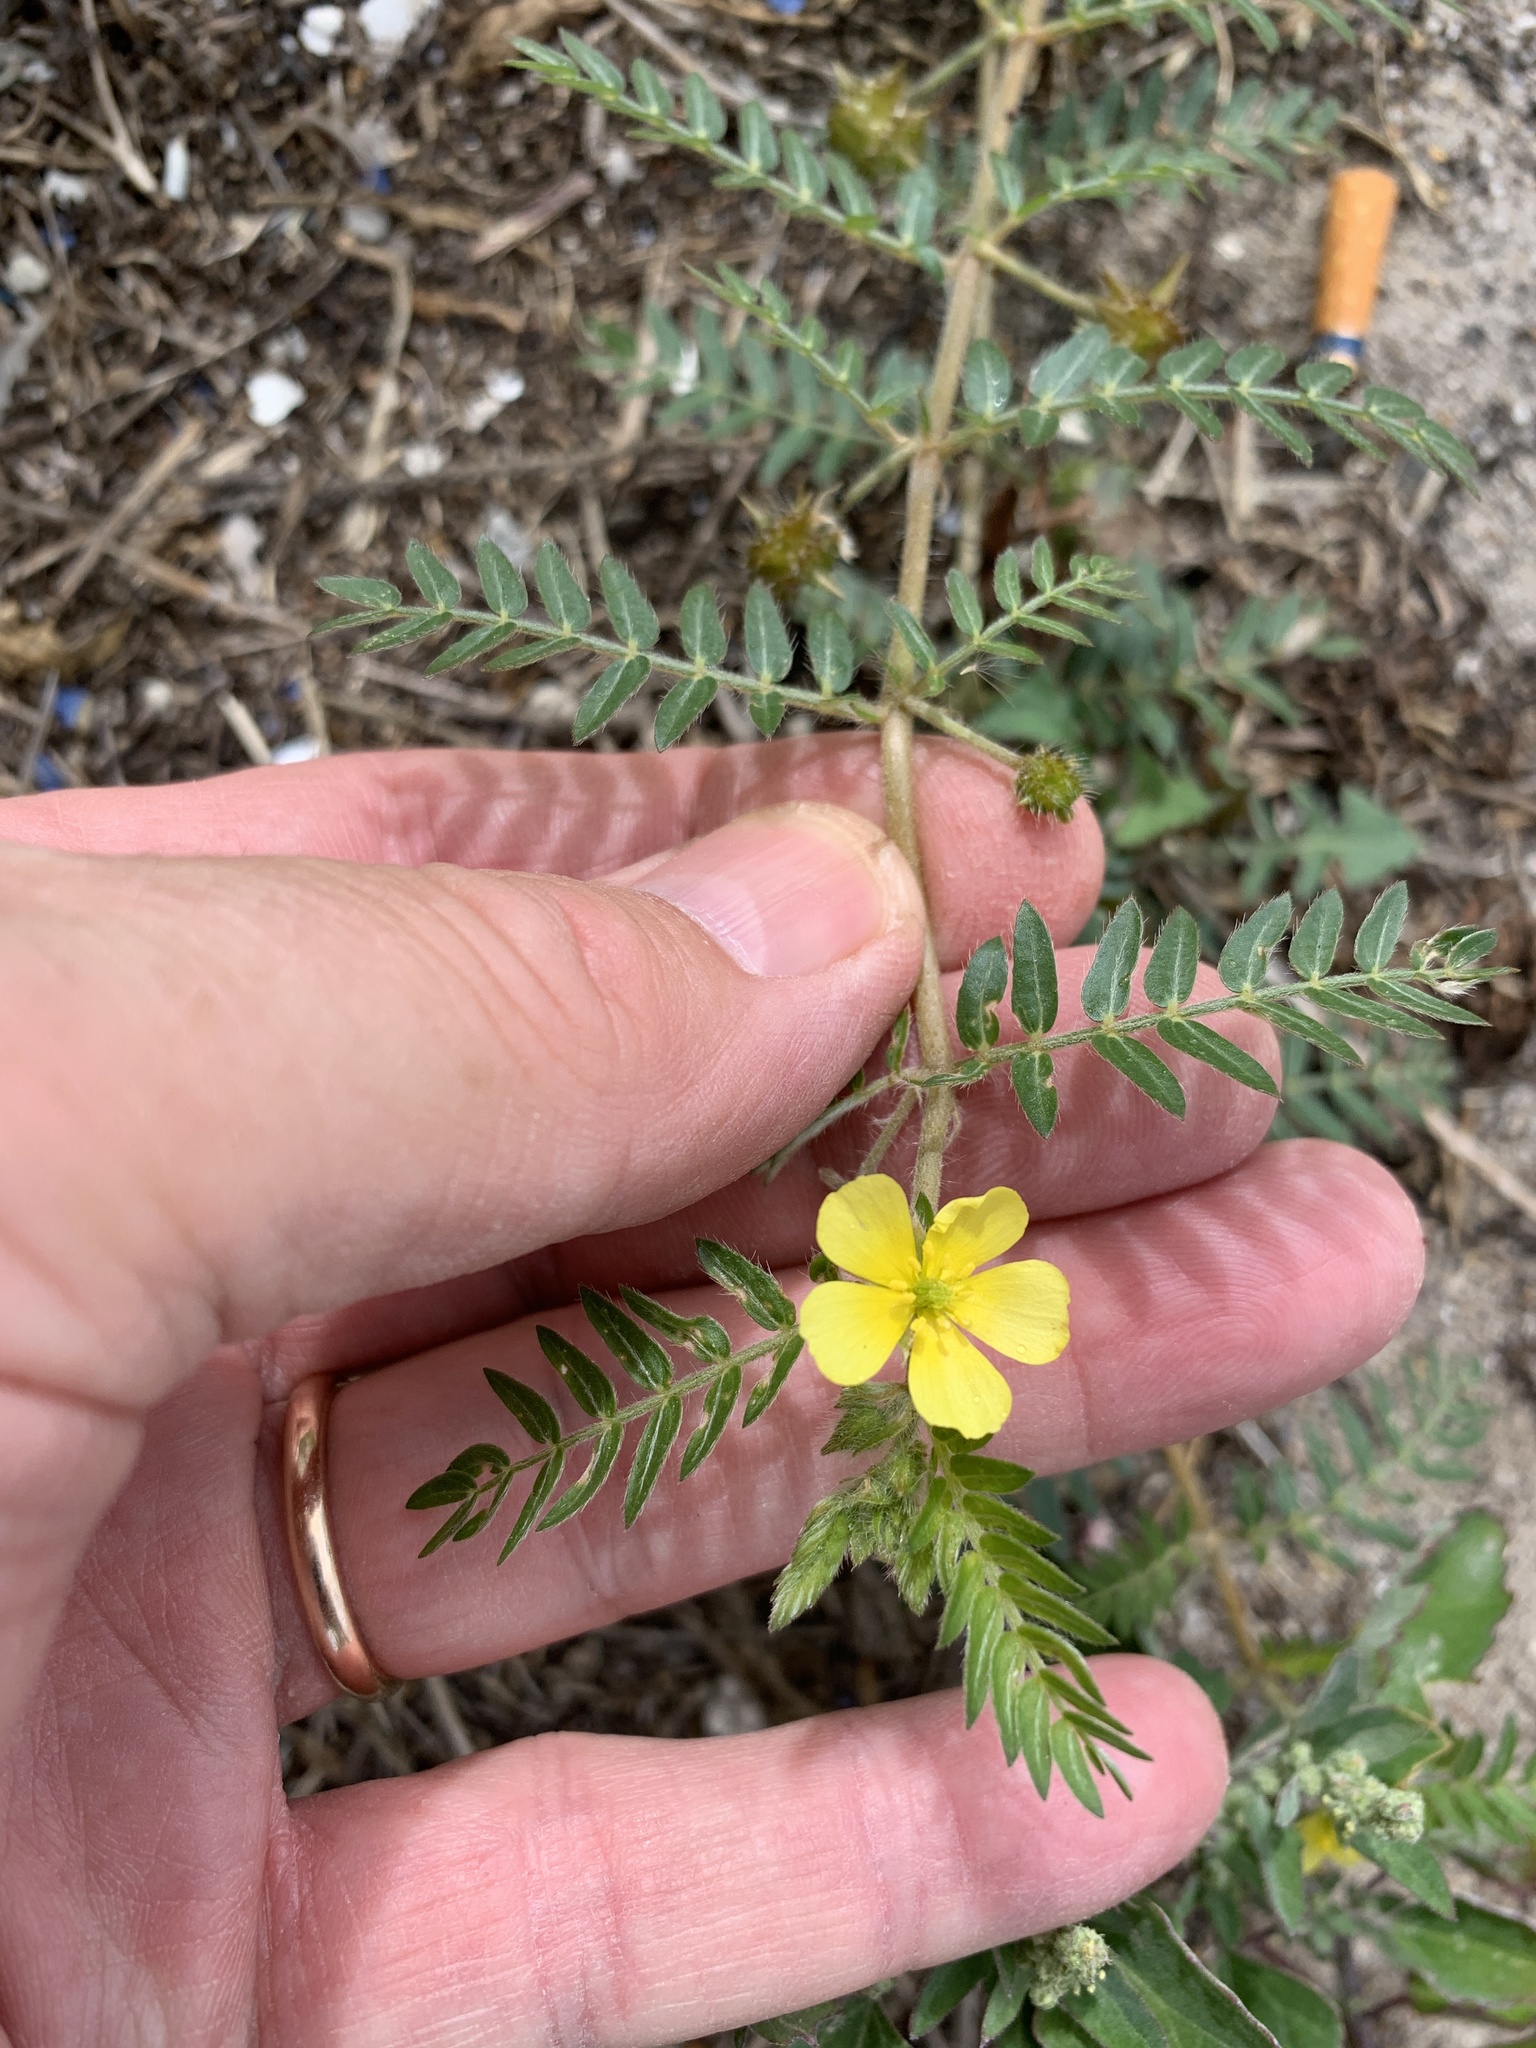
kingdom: Plantae
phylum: Tracheophyta
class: Magnoliopsida
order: Zygophyllales
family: Zygophyllaceae
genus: Tribulus
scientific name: Tribulus terrestris
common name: Puncturevine
